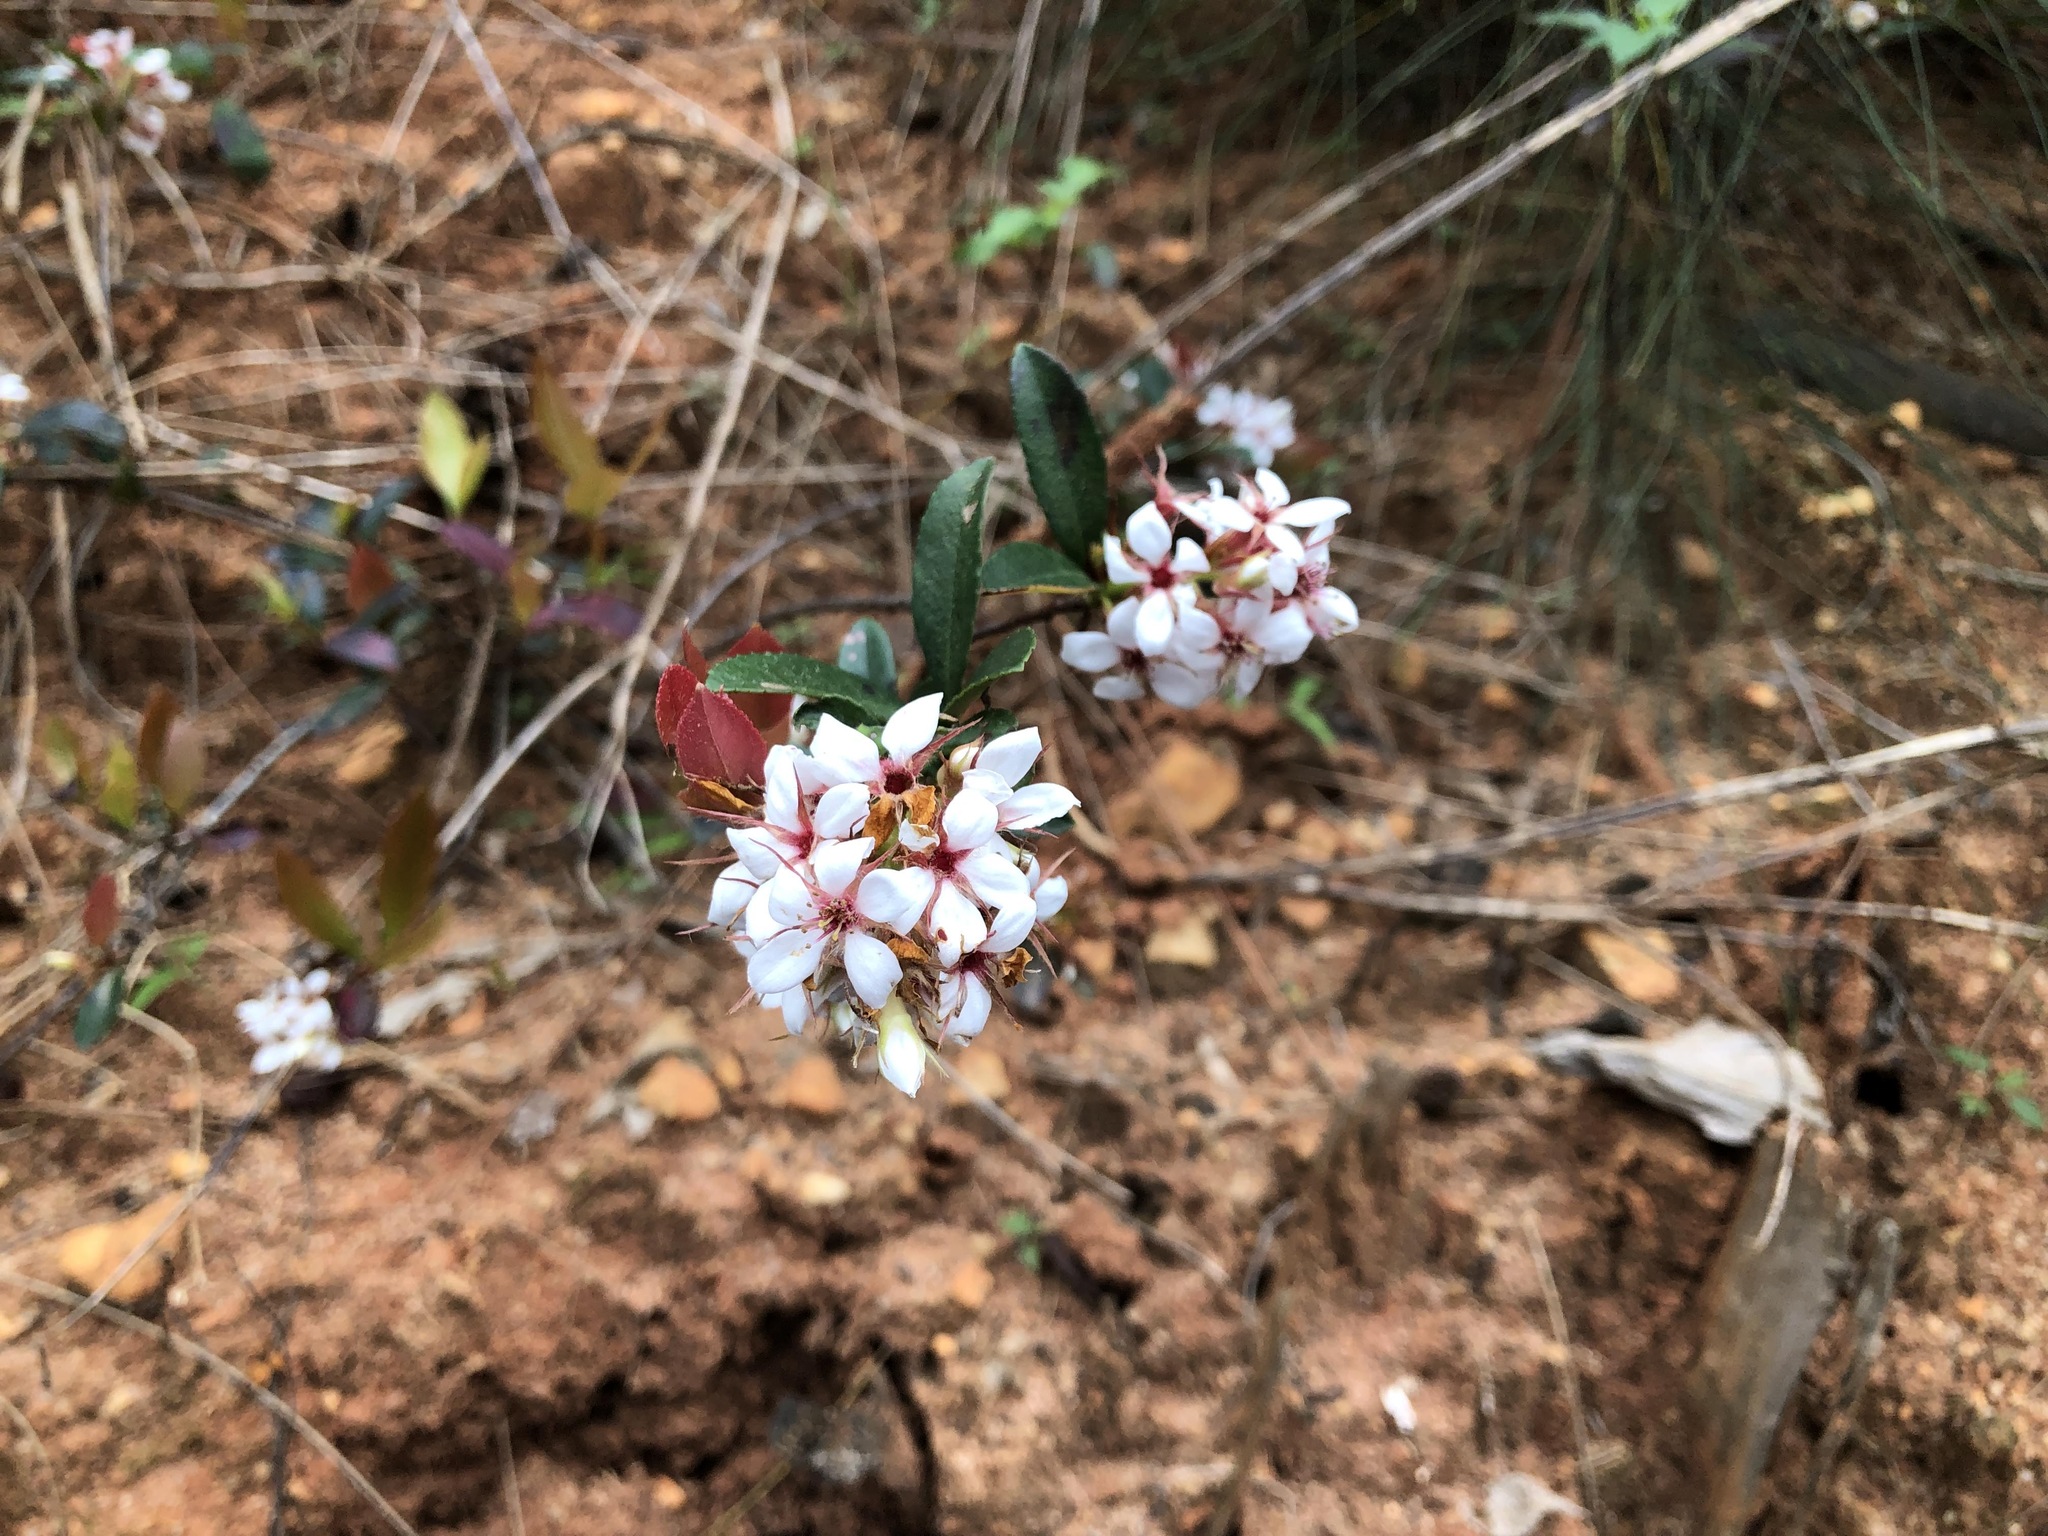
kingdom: Plantae
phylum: Tracheophyta
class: Magnoliopsida
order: Rosales
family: Rosaceae
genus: Rhaphiolepis
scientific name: Rhaphiolepis indica
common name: India-hawthorn
